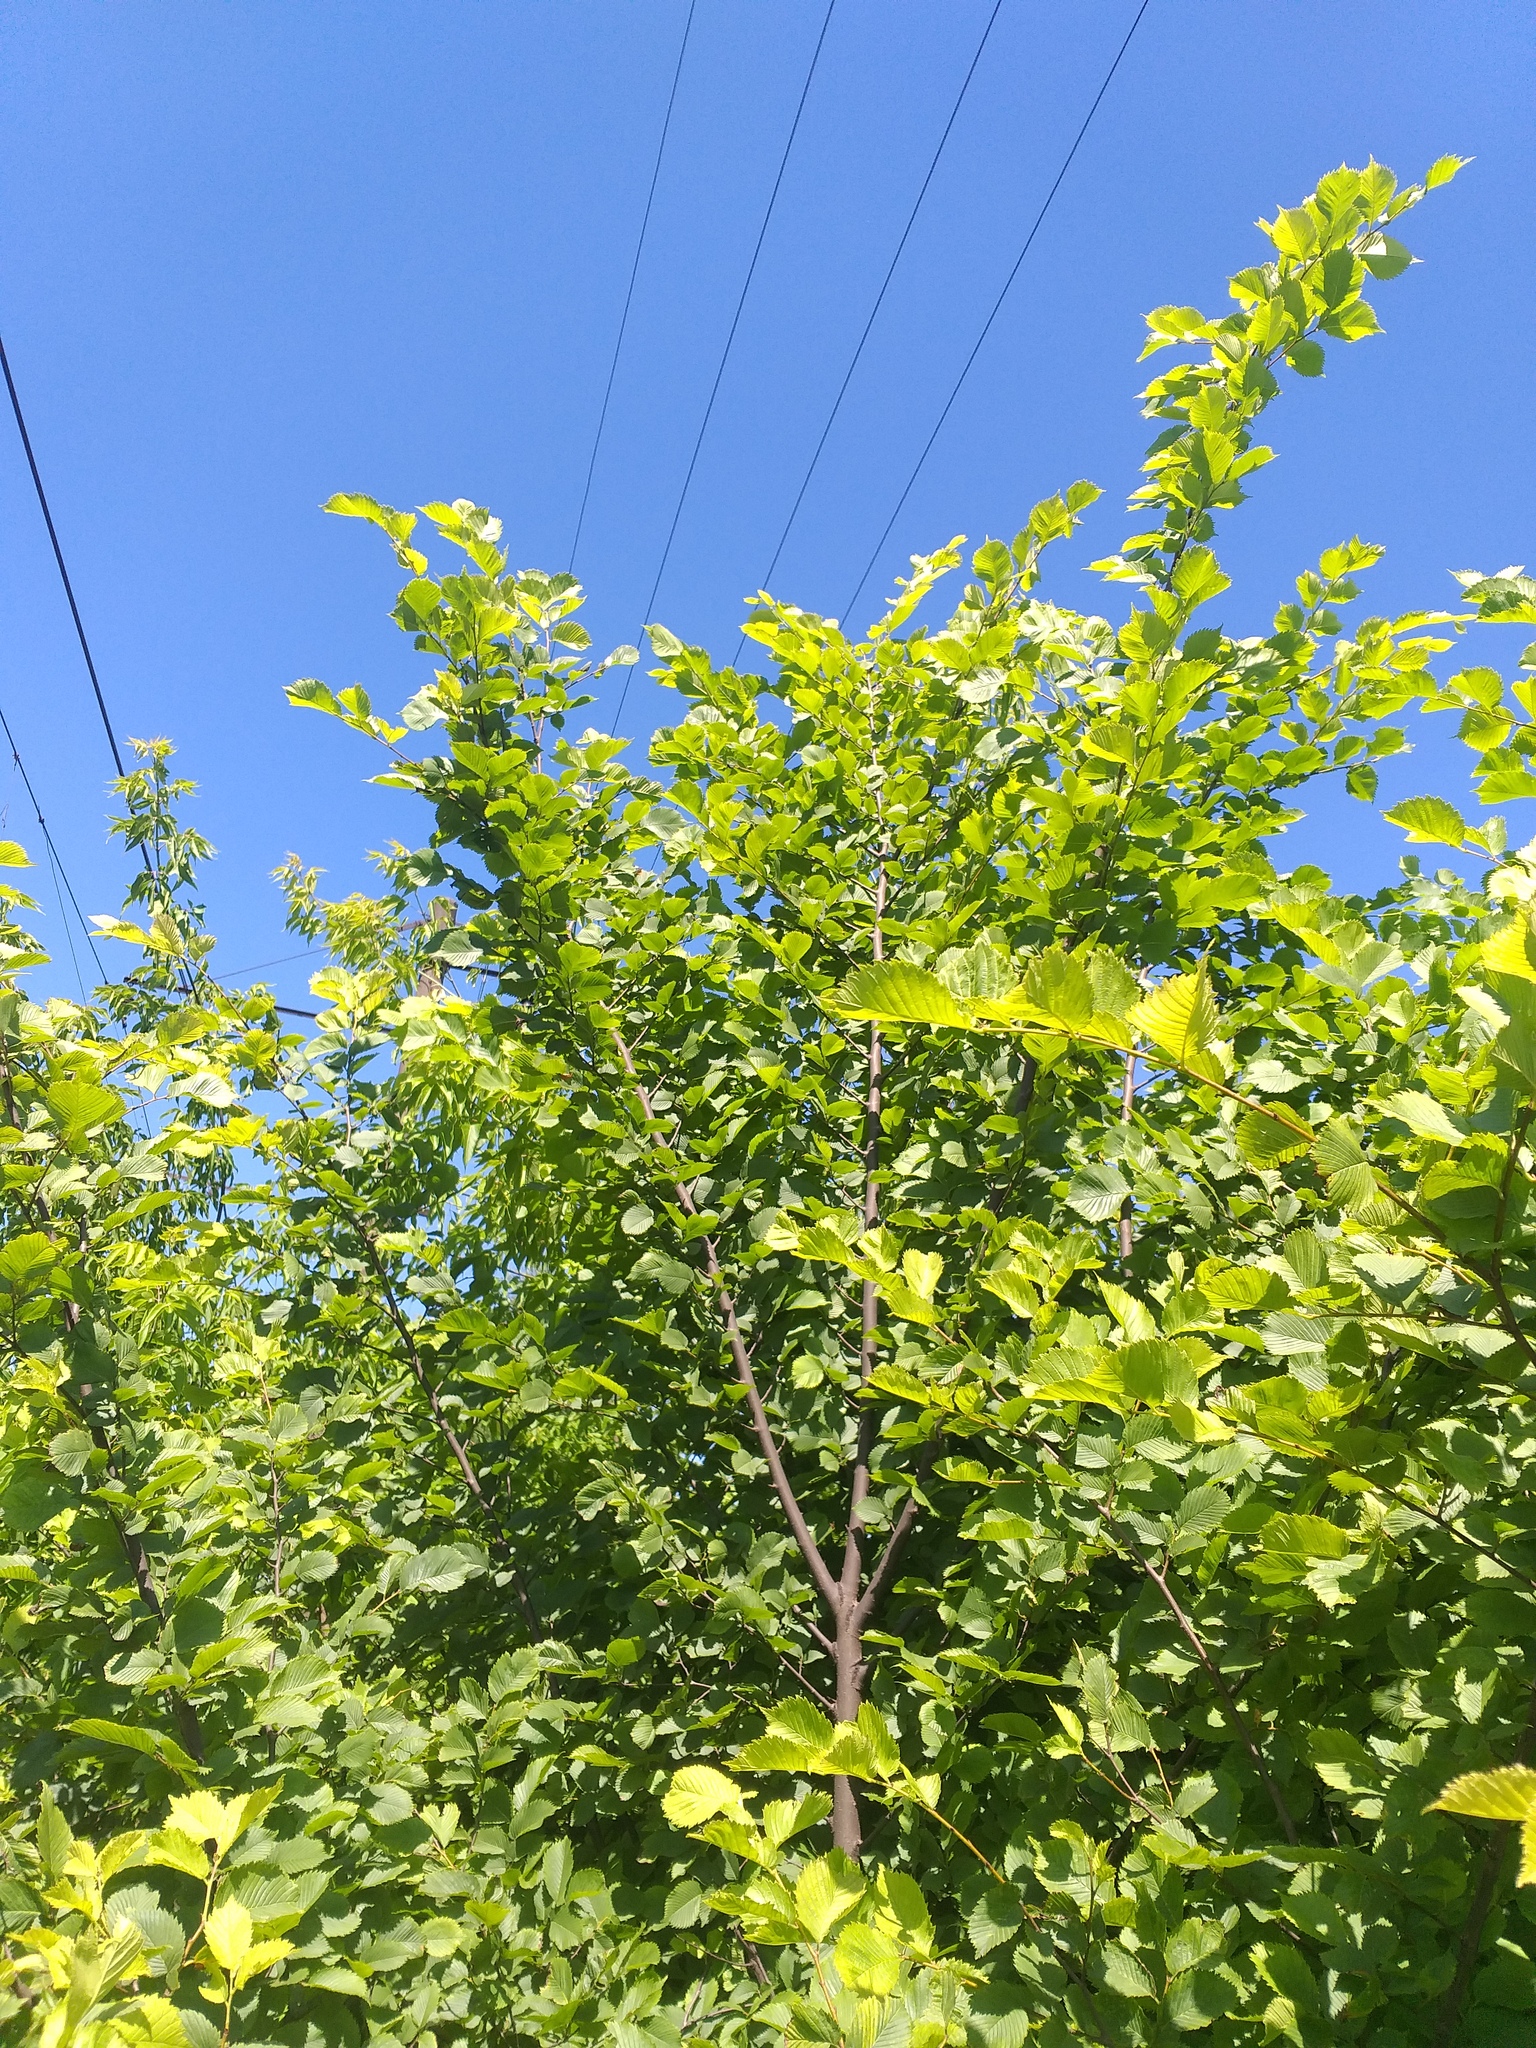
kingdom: Plantae
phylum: Tracheophyta
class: Magnoliopsida
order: Rosales
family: Ulmaceae
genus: Ulmus
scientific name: Ulmus laevis
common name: European white-elm
